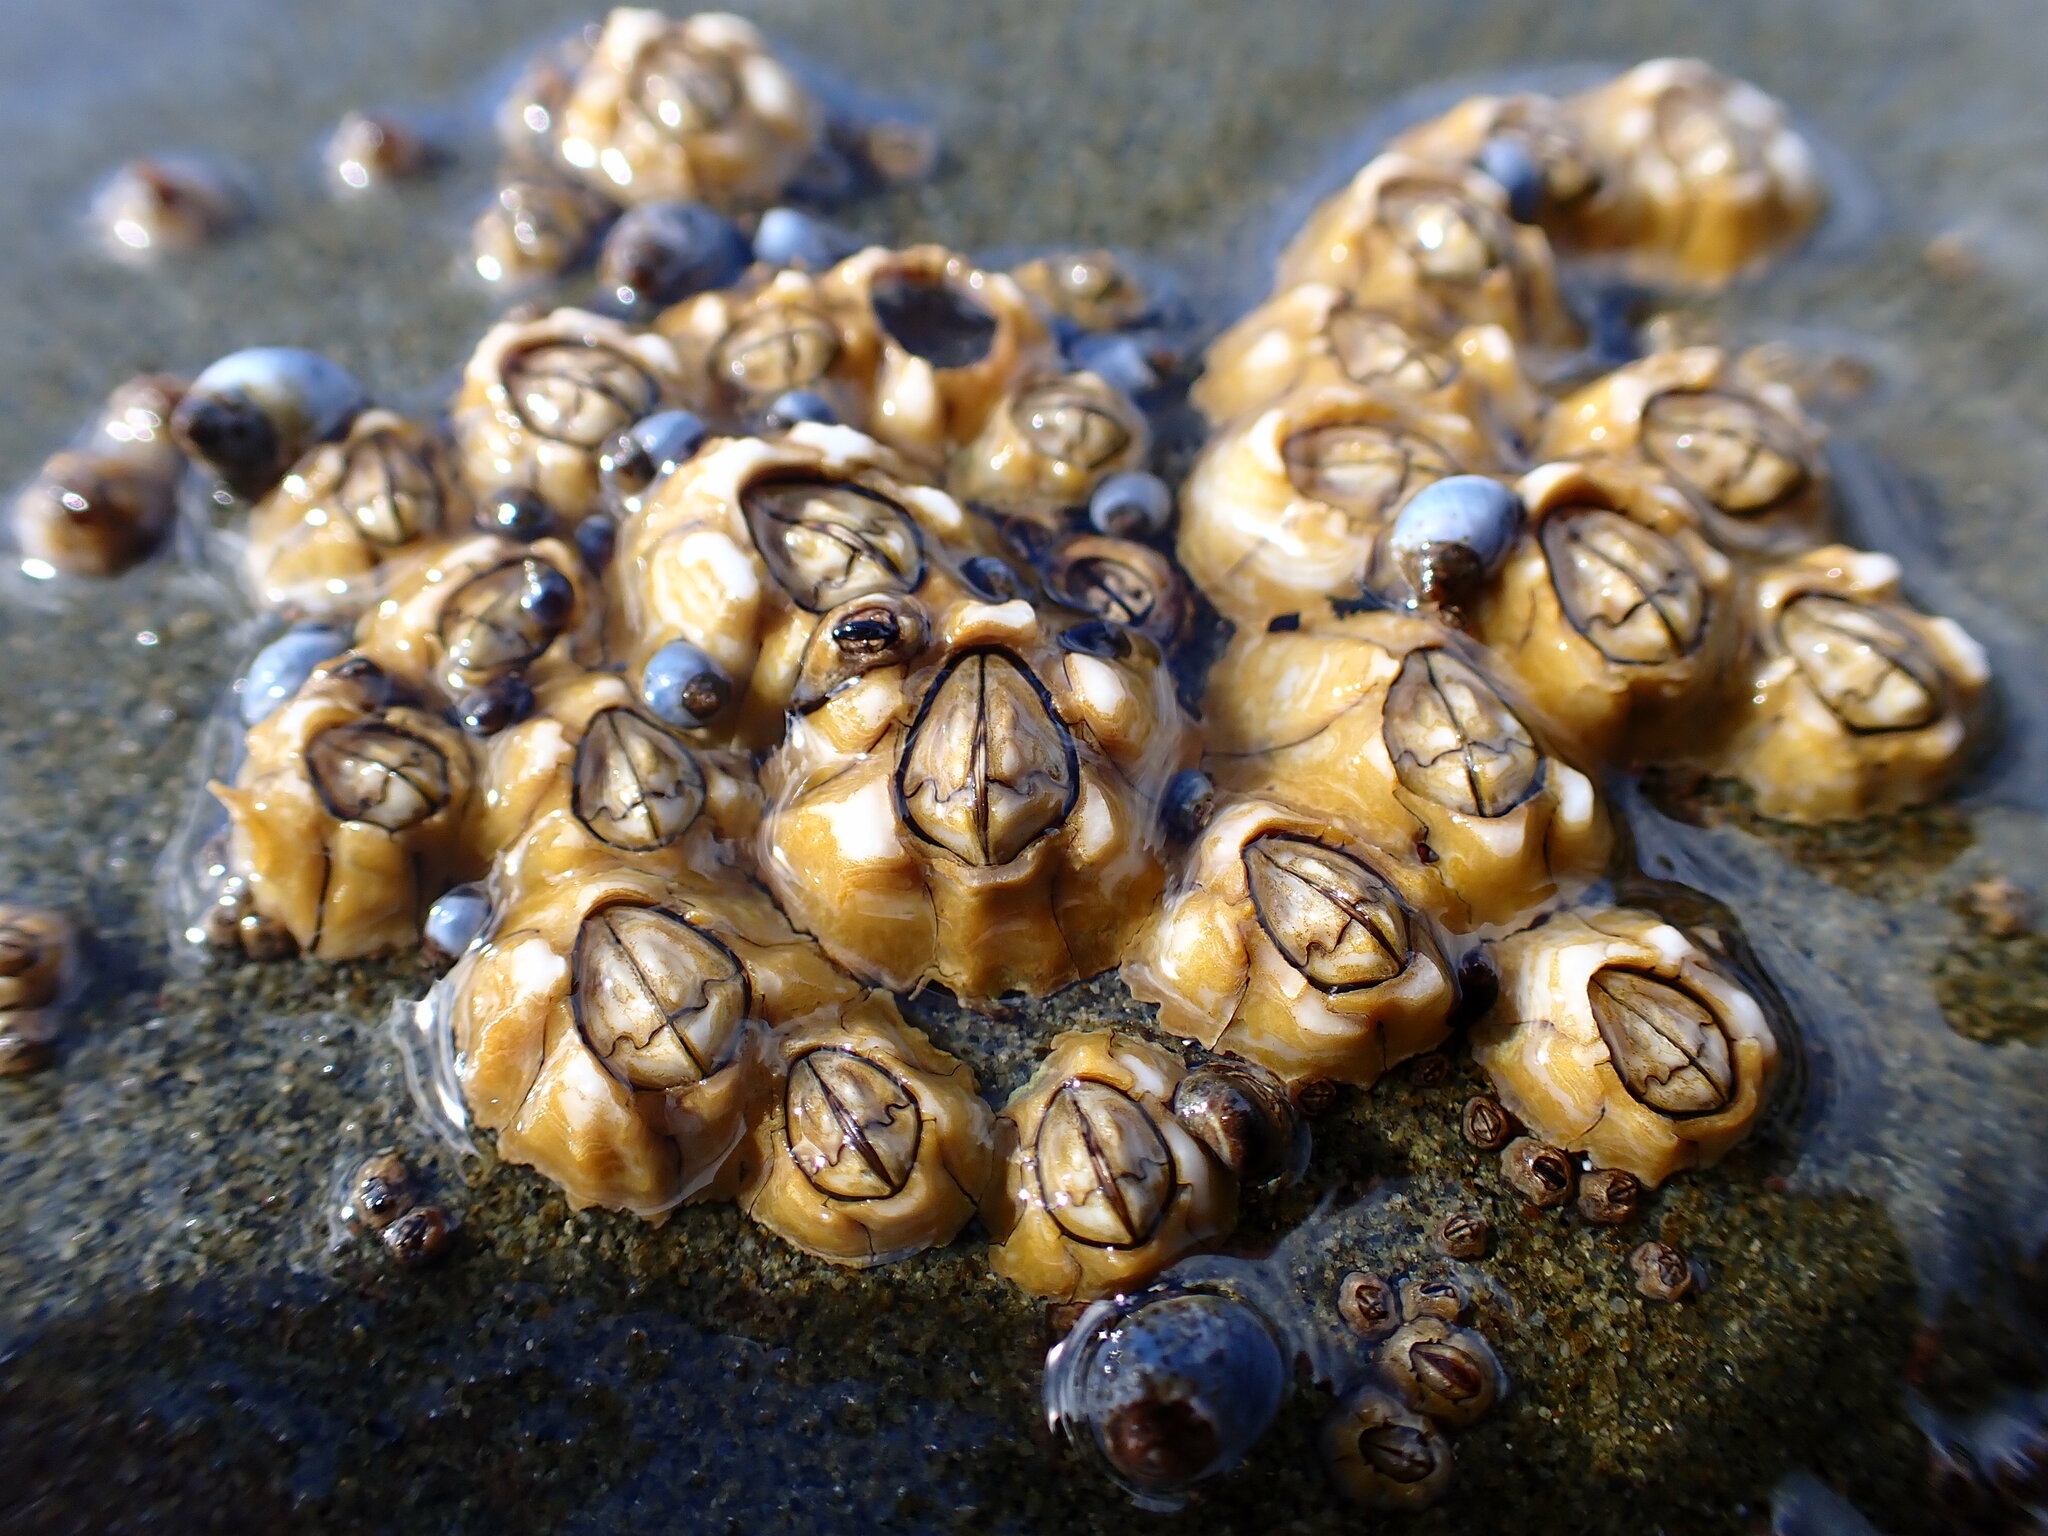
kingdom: Animalia
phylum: Arthropoda
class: Maxillopoda
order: Sessilia
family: Chthamalidae
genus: Chthamalus
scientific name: Chthamalus antennatus
